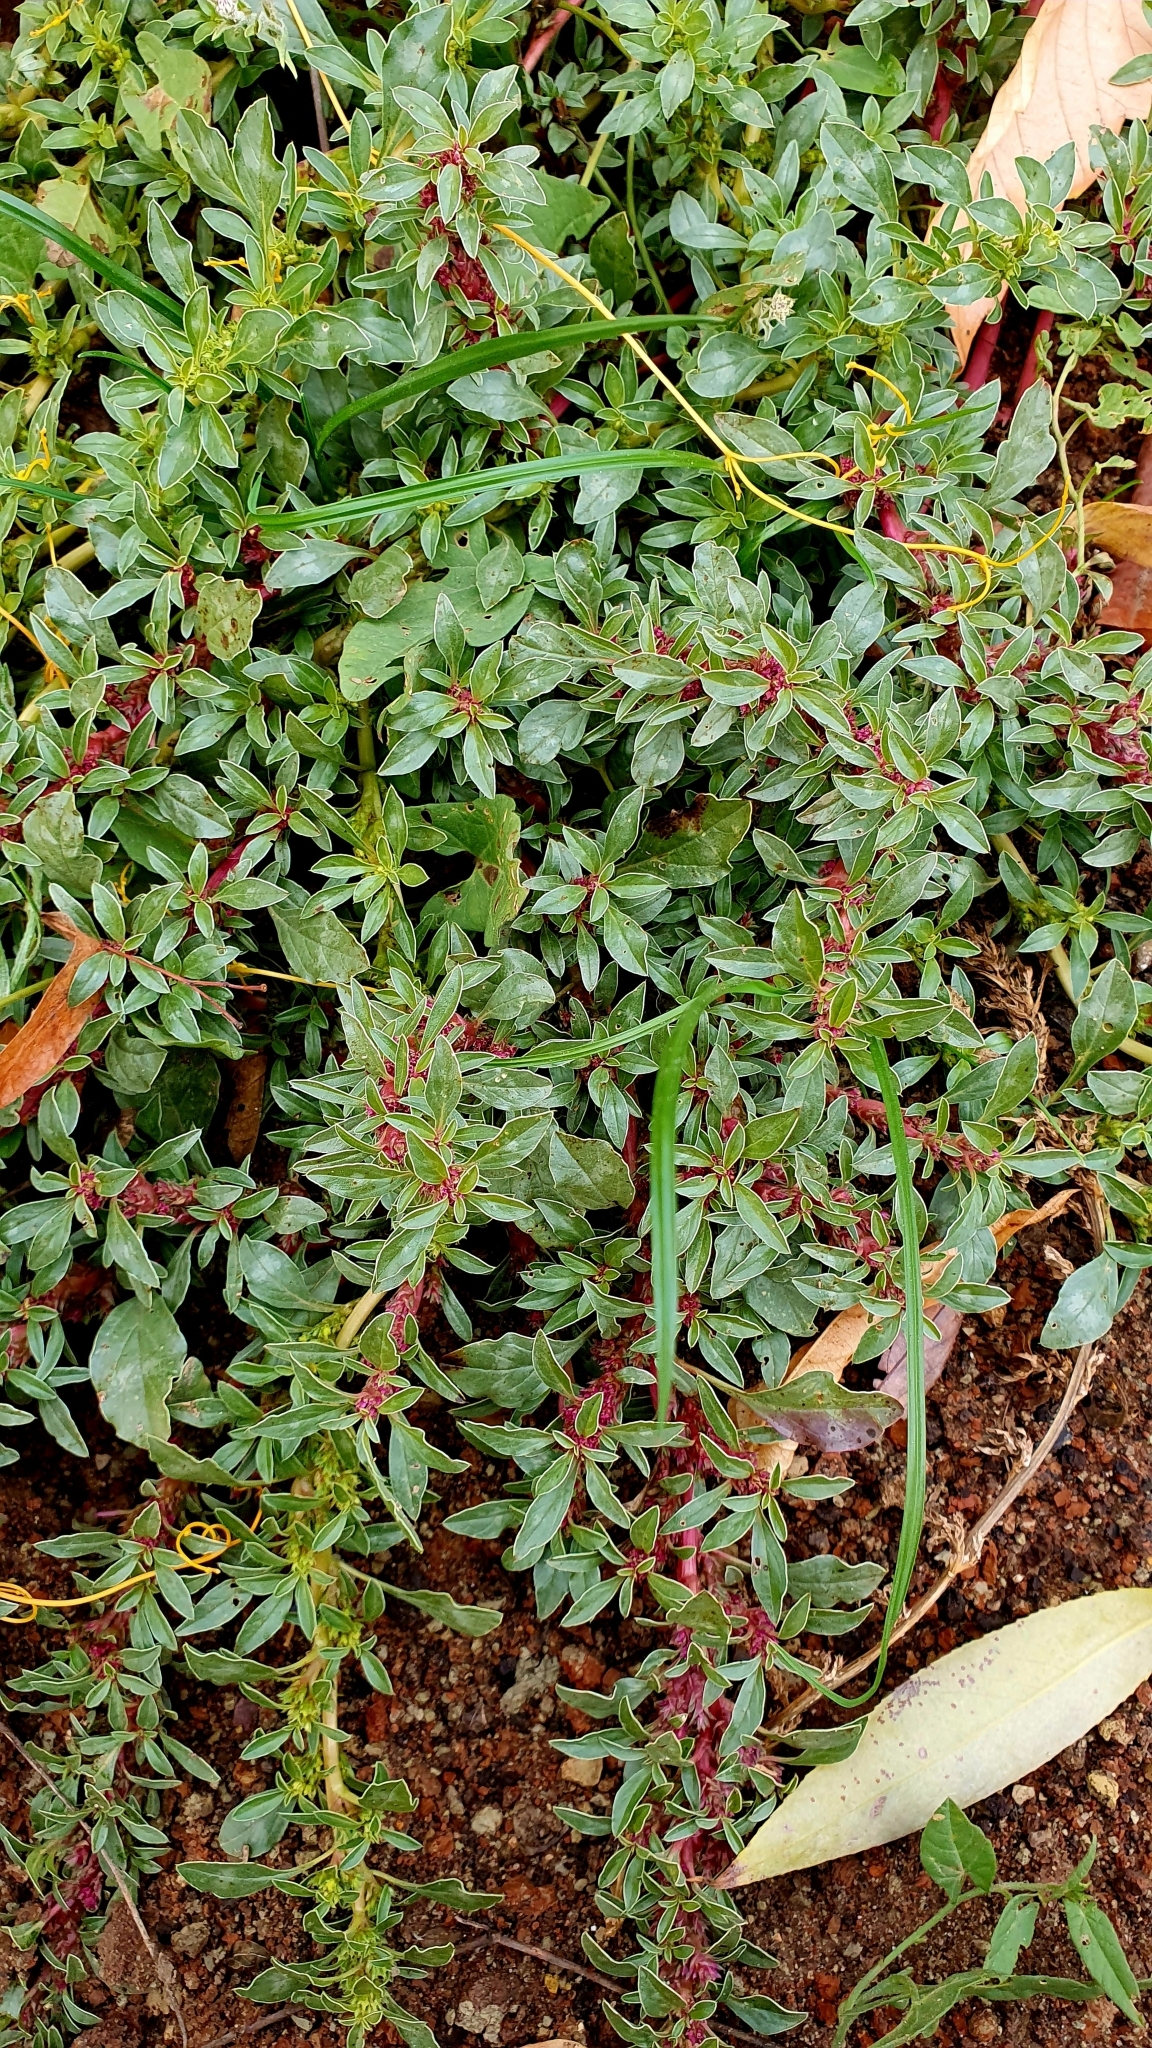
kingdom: Plantae
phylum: Tracheophyta
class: Magnoliopsida
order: Caryophyllales
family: Amaranthaceae
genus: Amaranthus
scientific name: Amaranthus blitoides
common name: Prostrate pigweed
